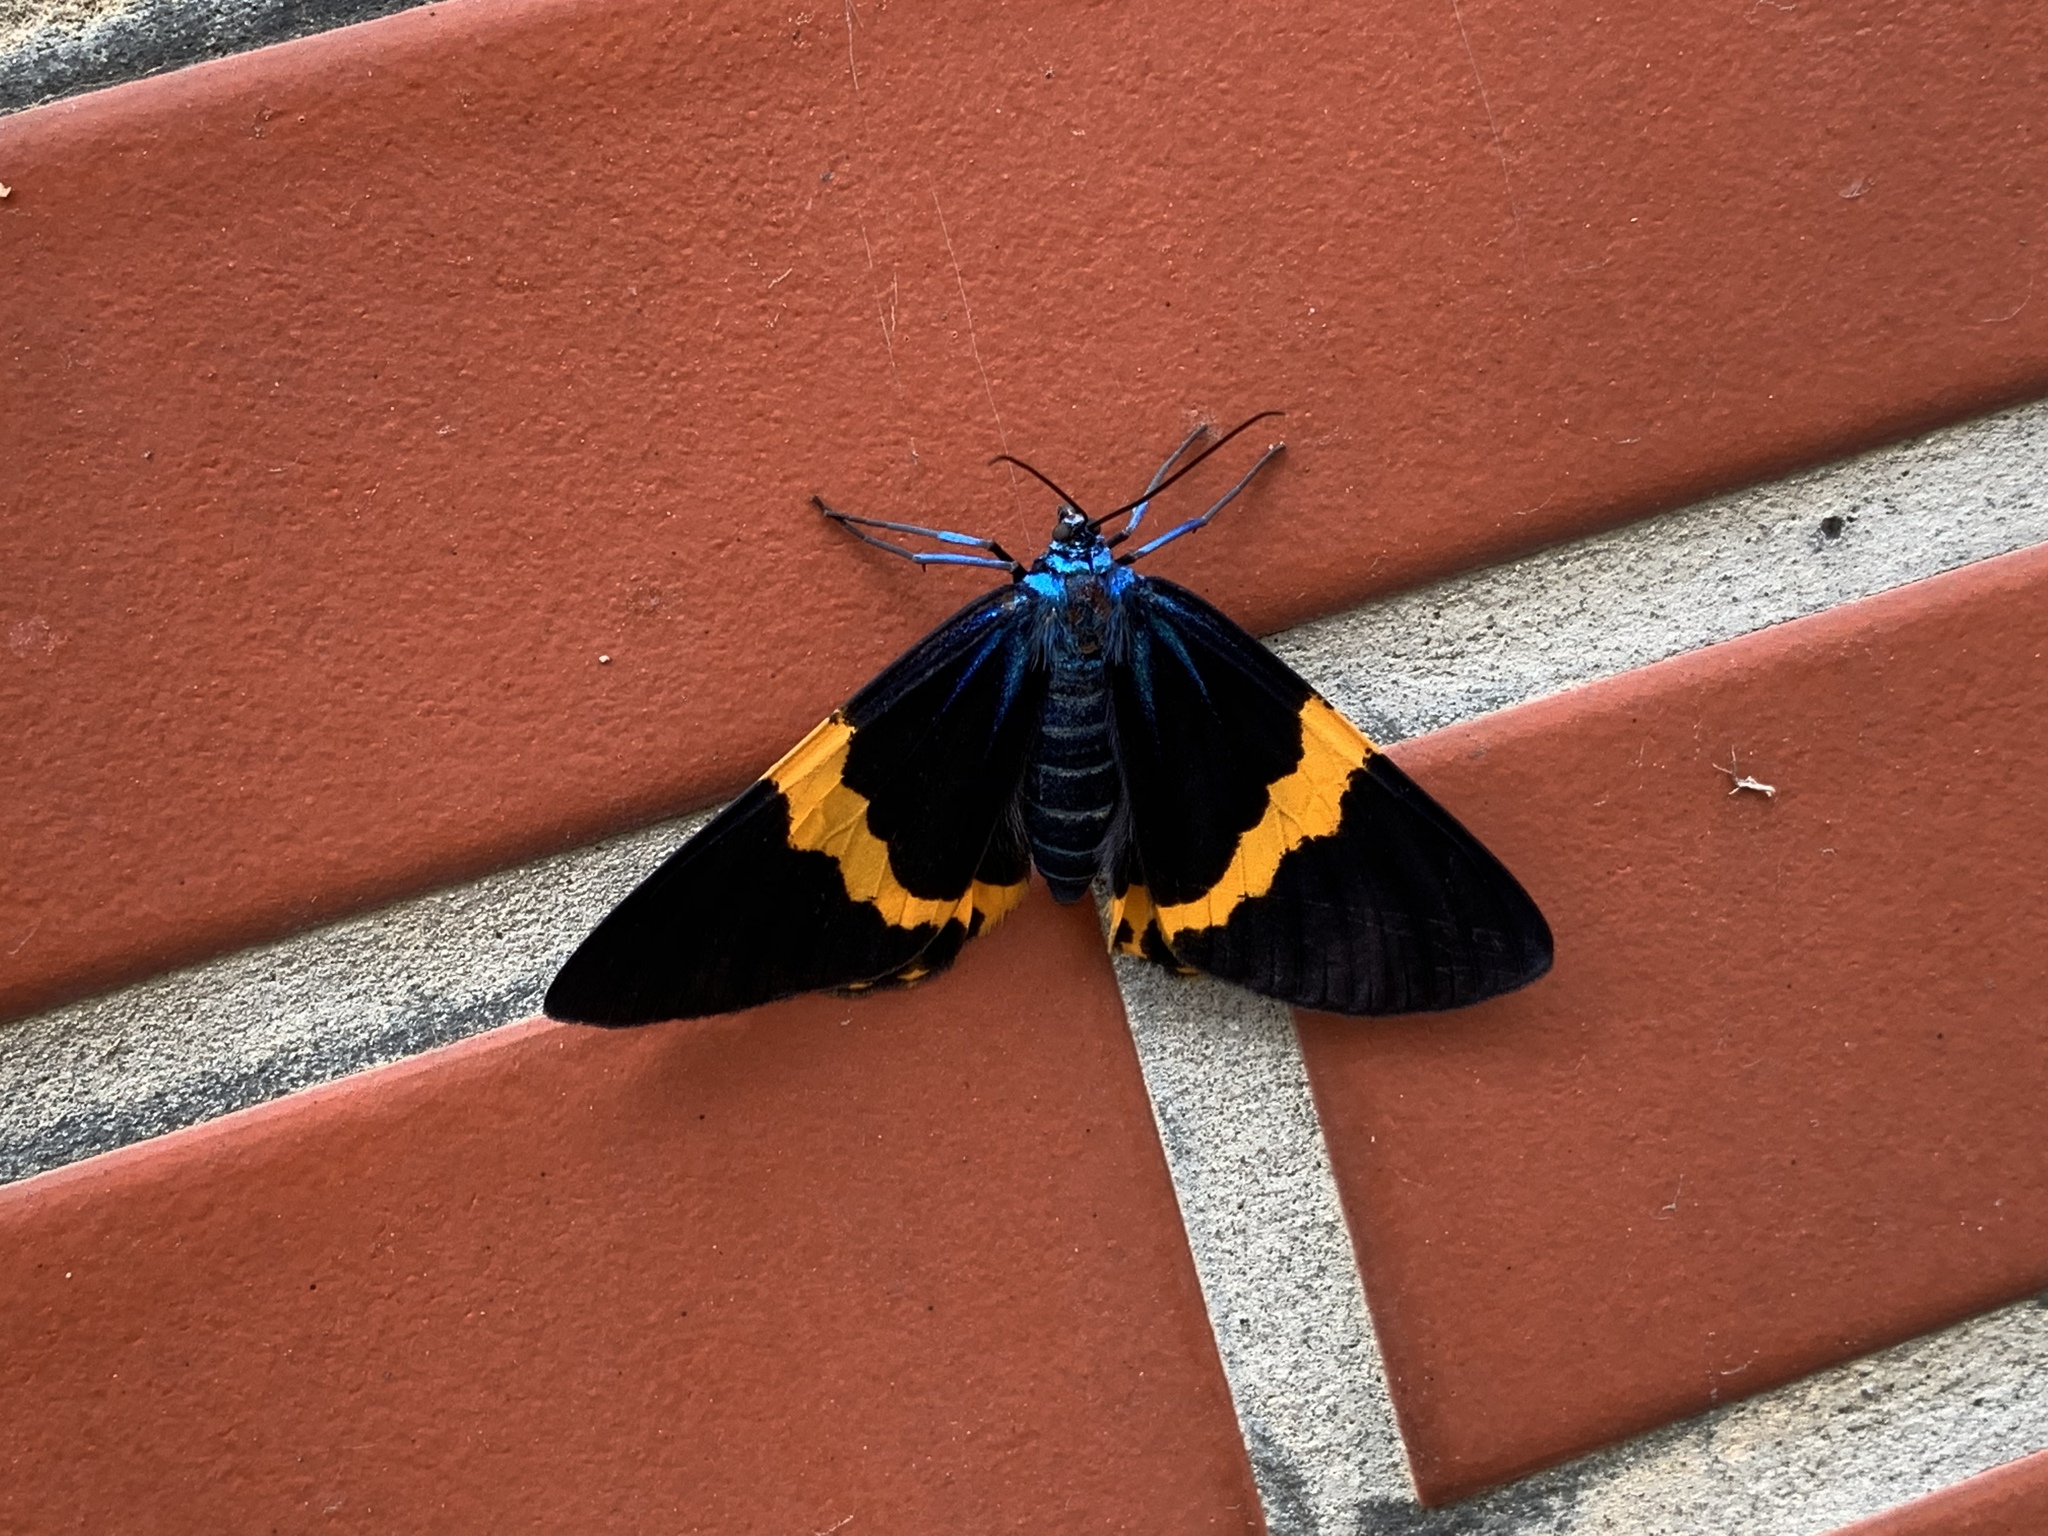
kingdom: Animalia
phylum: Arthropoda
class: Insecta
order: Lepidoptera
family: Geometridae
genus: Milionia
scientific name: Milionia basalis
